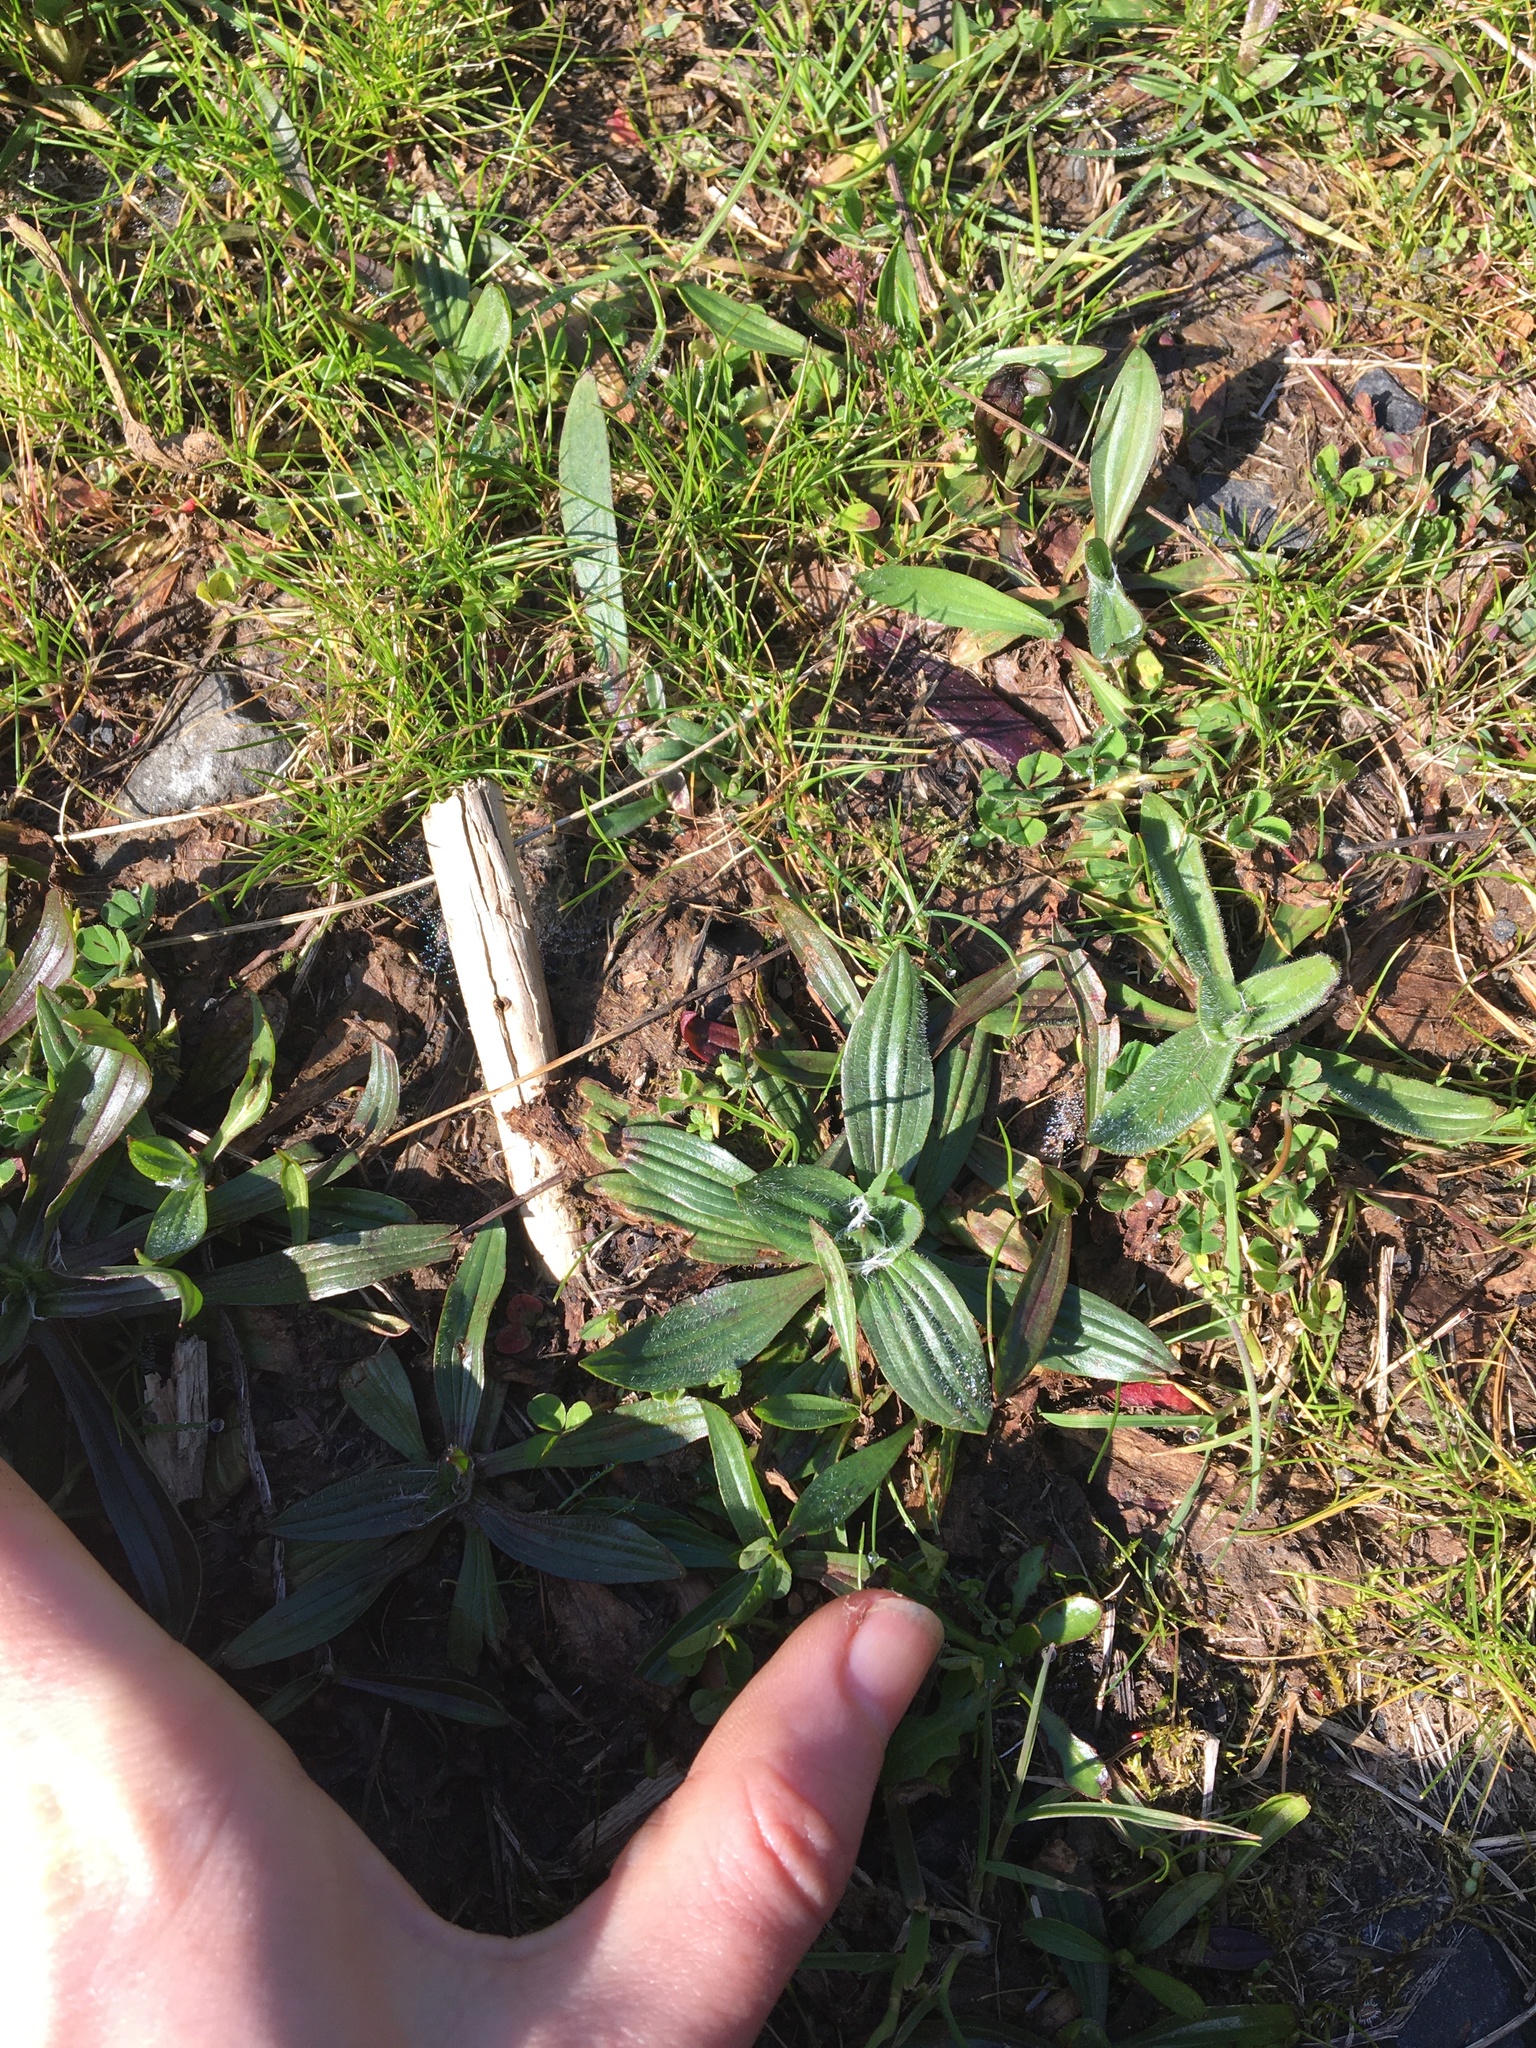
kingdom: Plantae
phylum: Tracheophyta
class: Magnoliopsida
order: Lamiales
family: Plantaginaceae
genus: Plantago
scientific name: Plantago lanceolata
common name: Ribwort plantain
